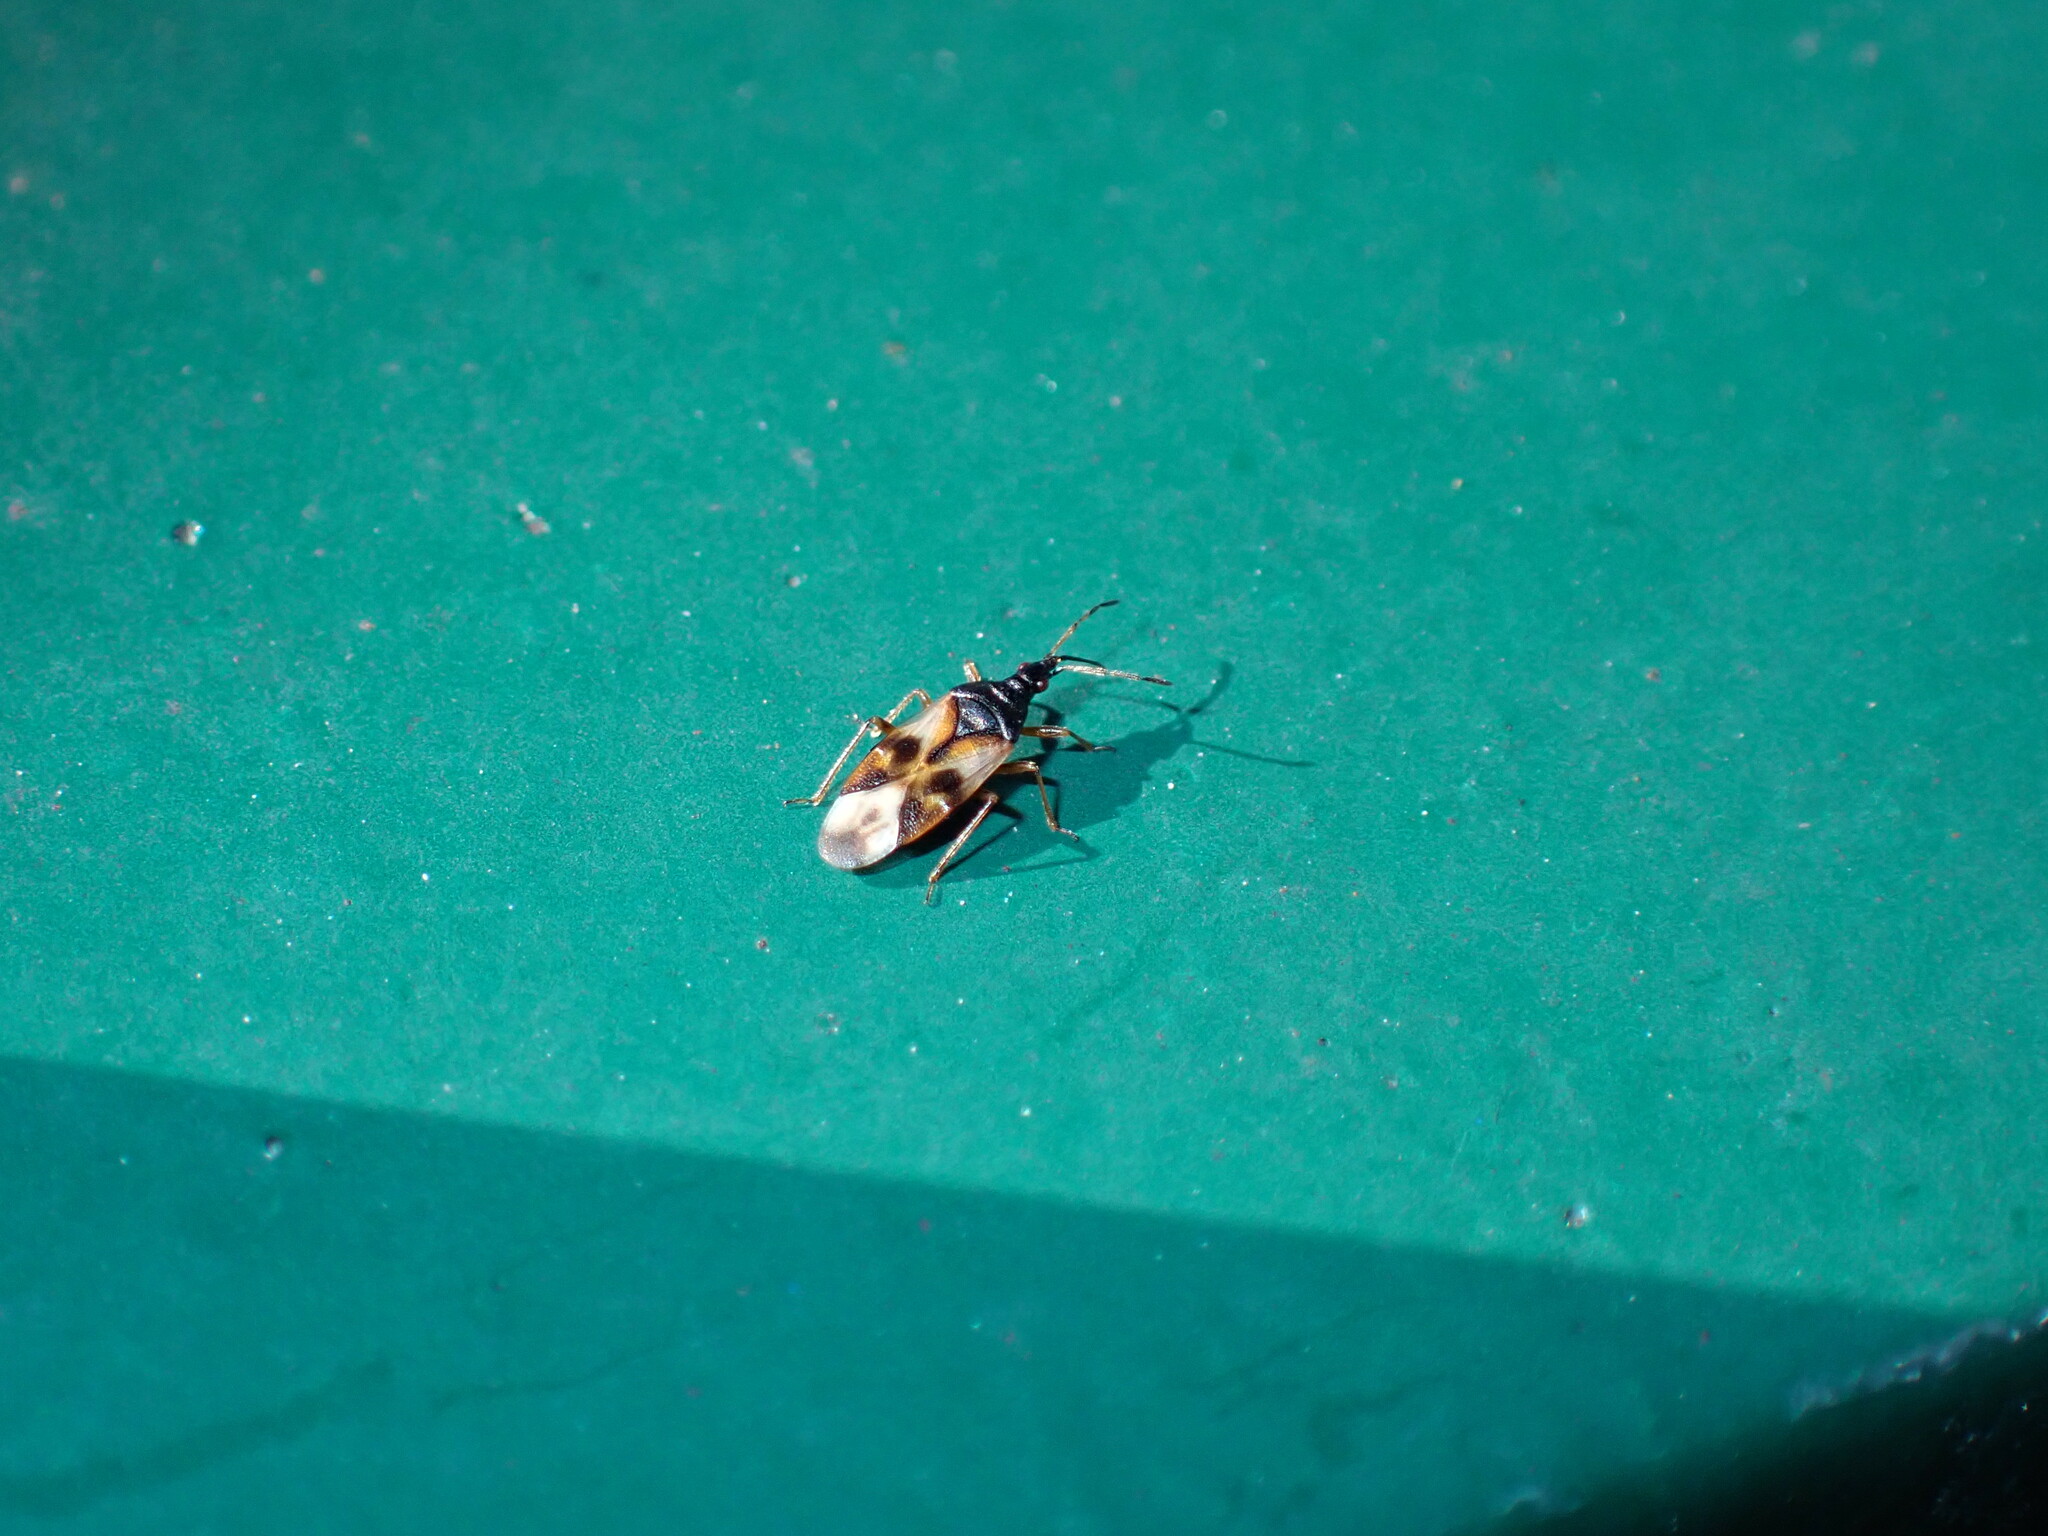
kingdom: Animalia
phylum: Arthropoda
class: Insecta
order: Hemiptera
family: Anthocoridae
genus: Anthocoris
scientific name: Anthocoris nemorum
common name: Minute pirate bug
